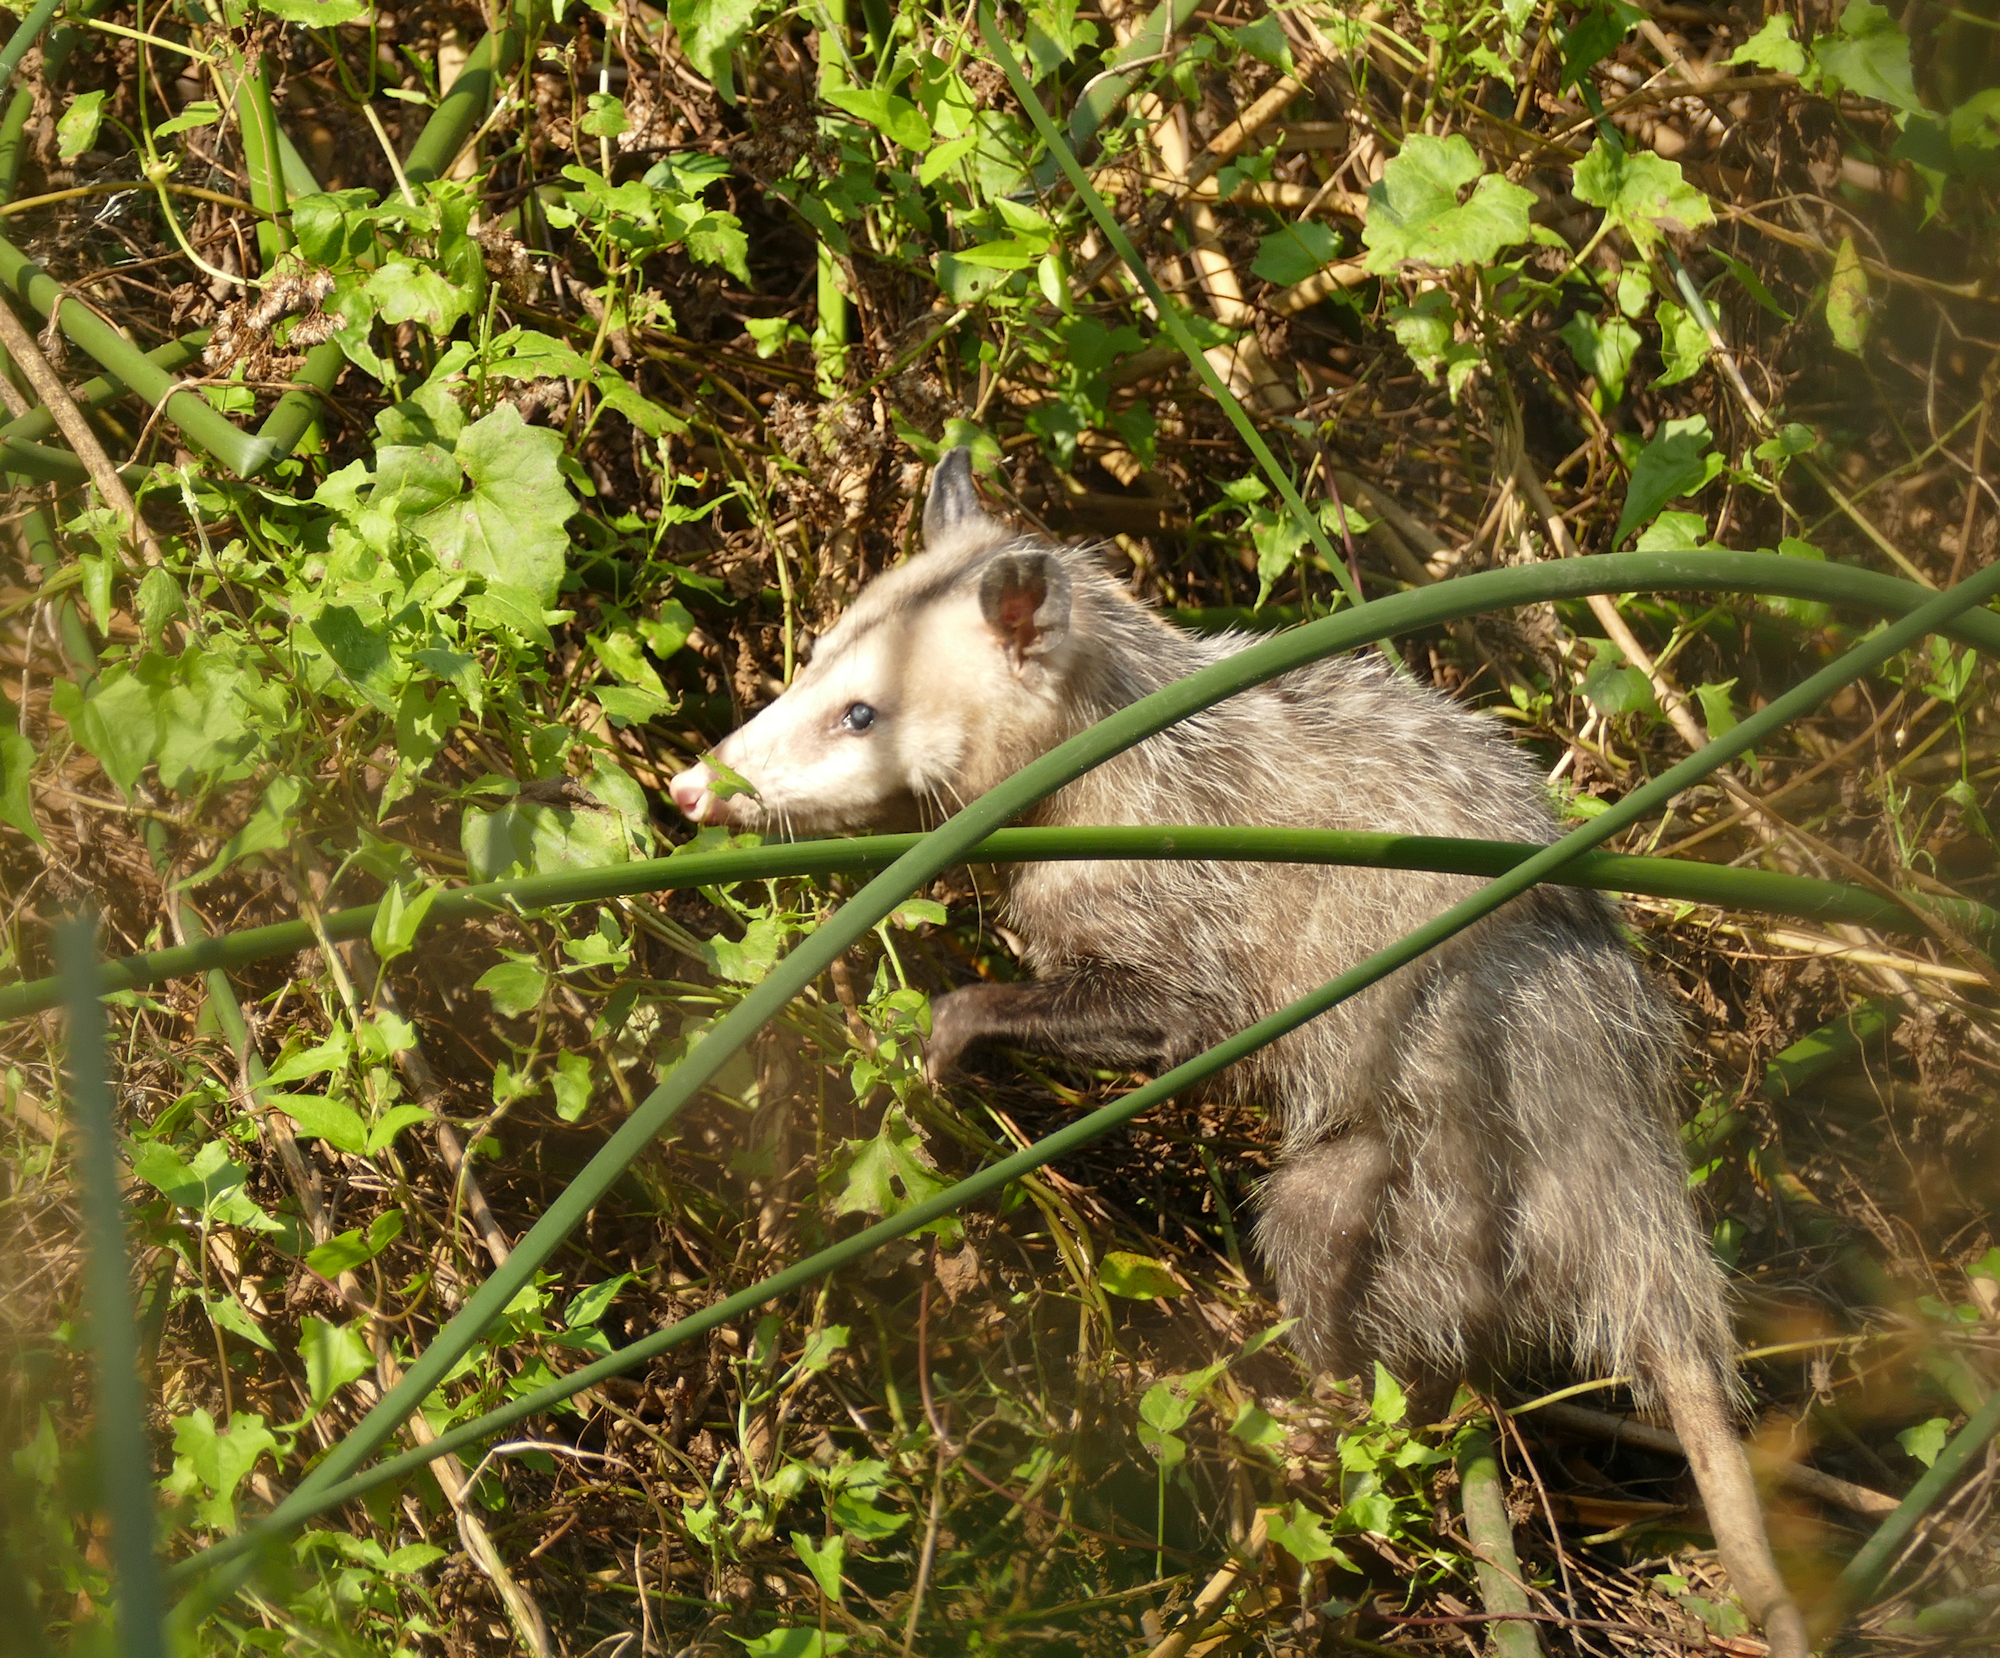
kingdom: Animalia
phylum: Chordata
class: Mammalia
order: Didelphimorphia
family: Didelphidae
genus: Didelphis
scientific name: Didelphis virginiana
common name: Virginia opossum
